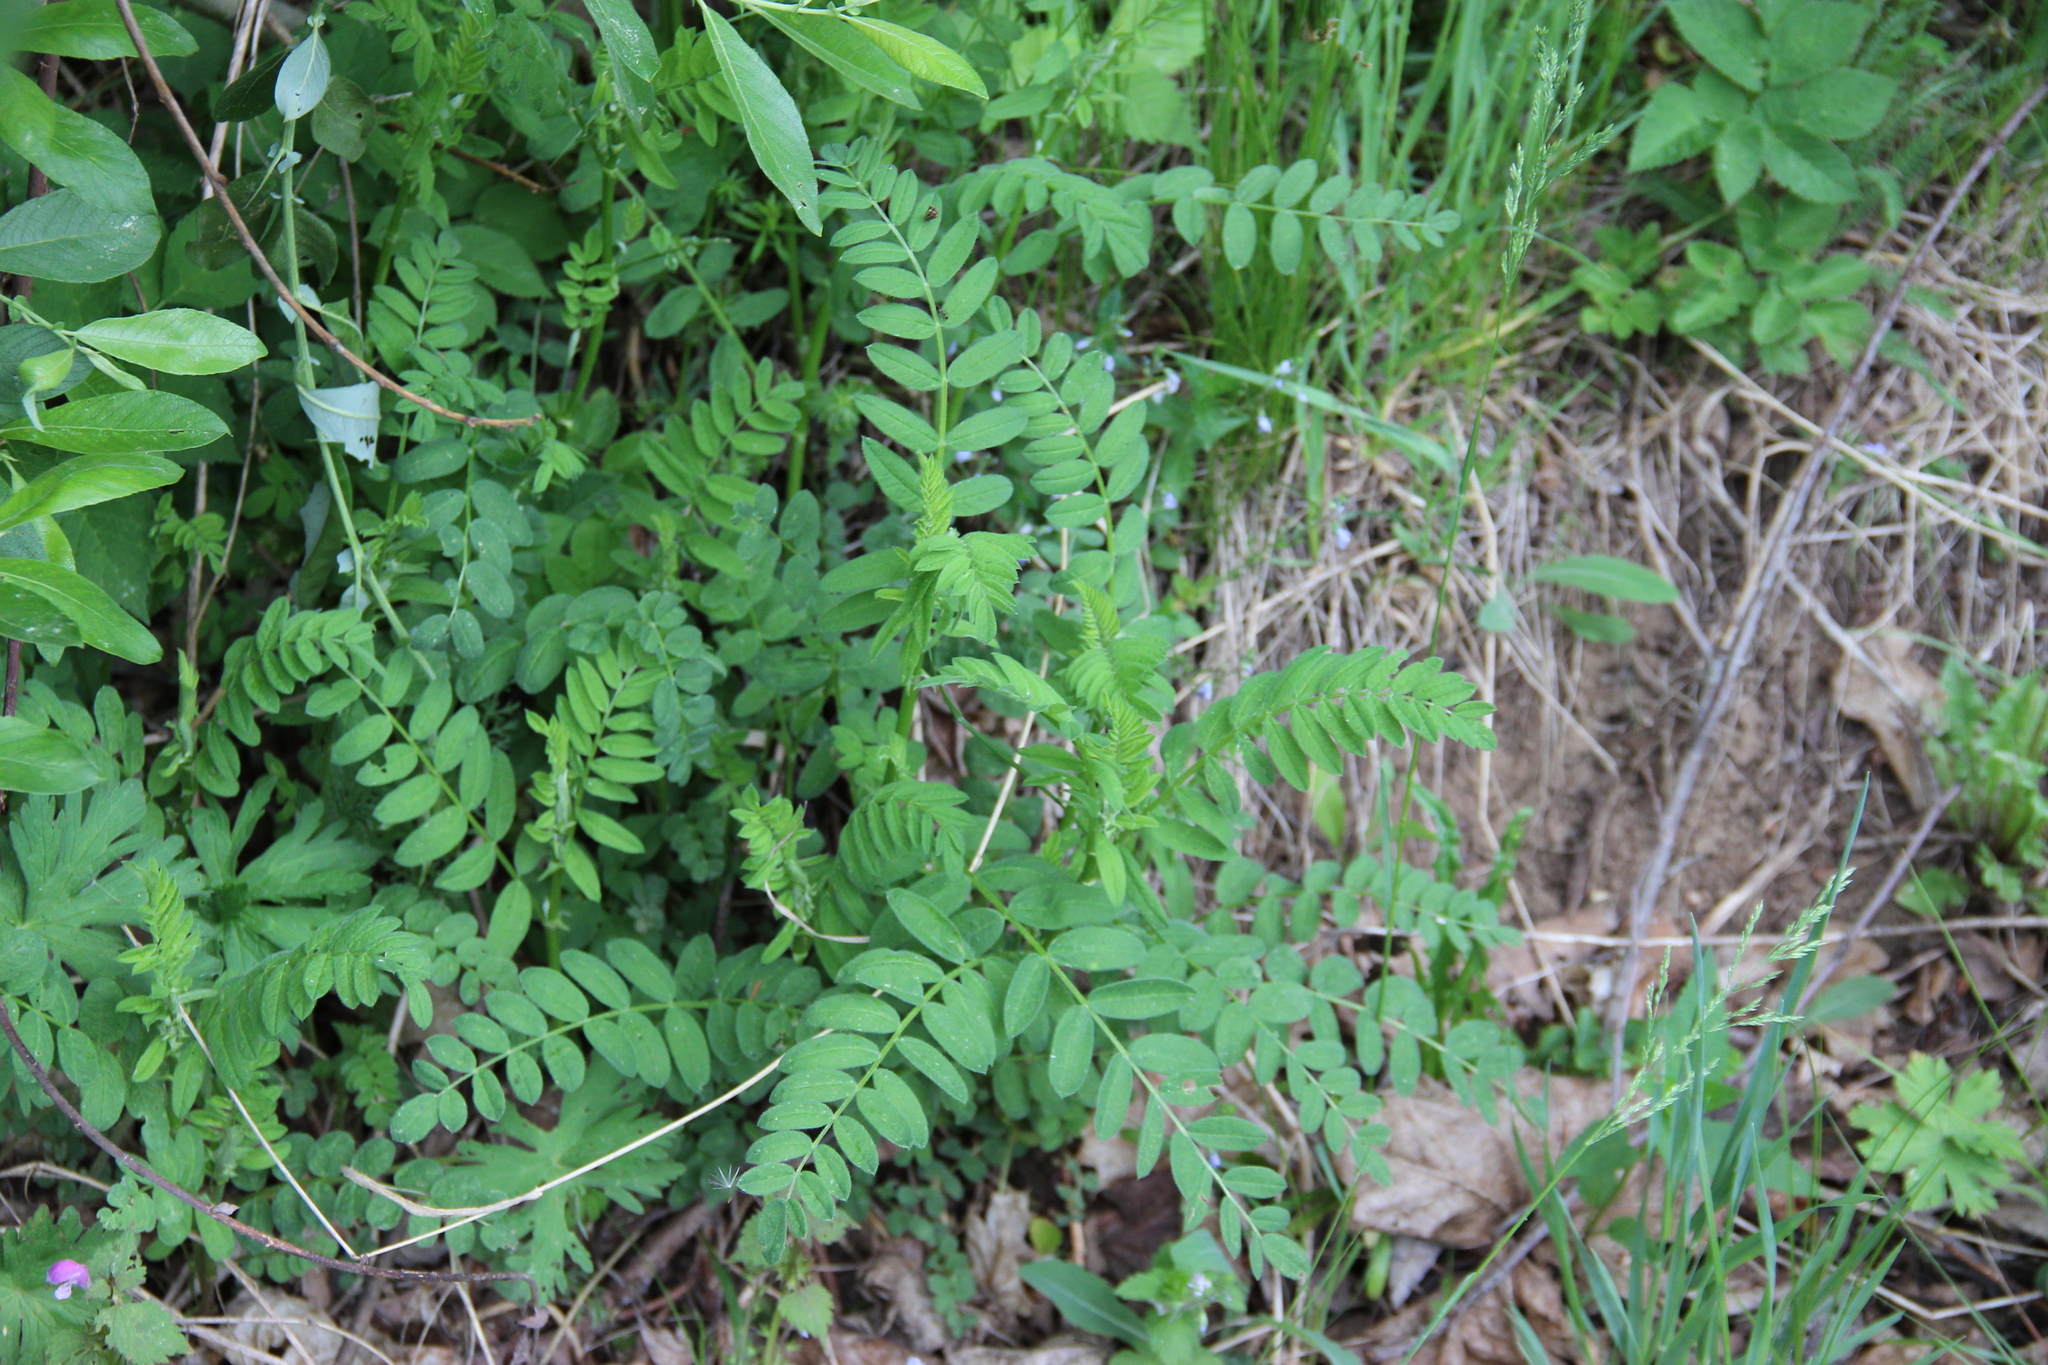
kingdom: Plantae
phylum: Tracheophyta
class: Magnoliopsida
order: Fabales
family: Fabaceae
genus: Astragalus
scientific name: Astragalus cicer
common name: Chick-pea milk-vetch
